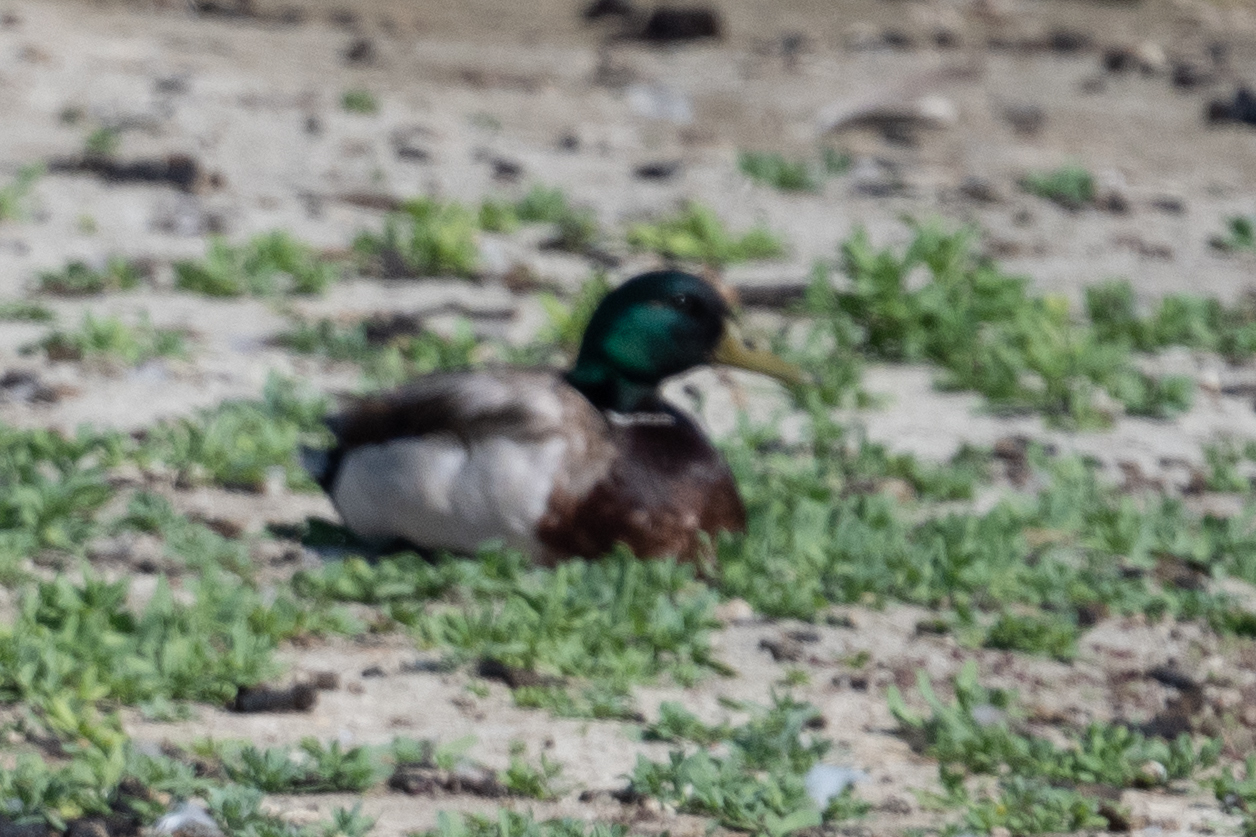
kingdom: Animalia
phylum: Chordata
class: Aves
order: Anseriformes
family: Anatidae
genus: Anas
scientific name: Anas platyrhynchos
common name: Mallard
